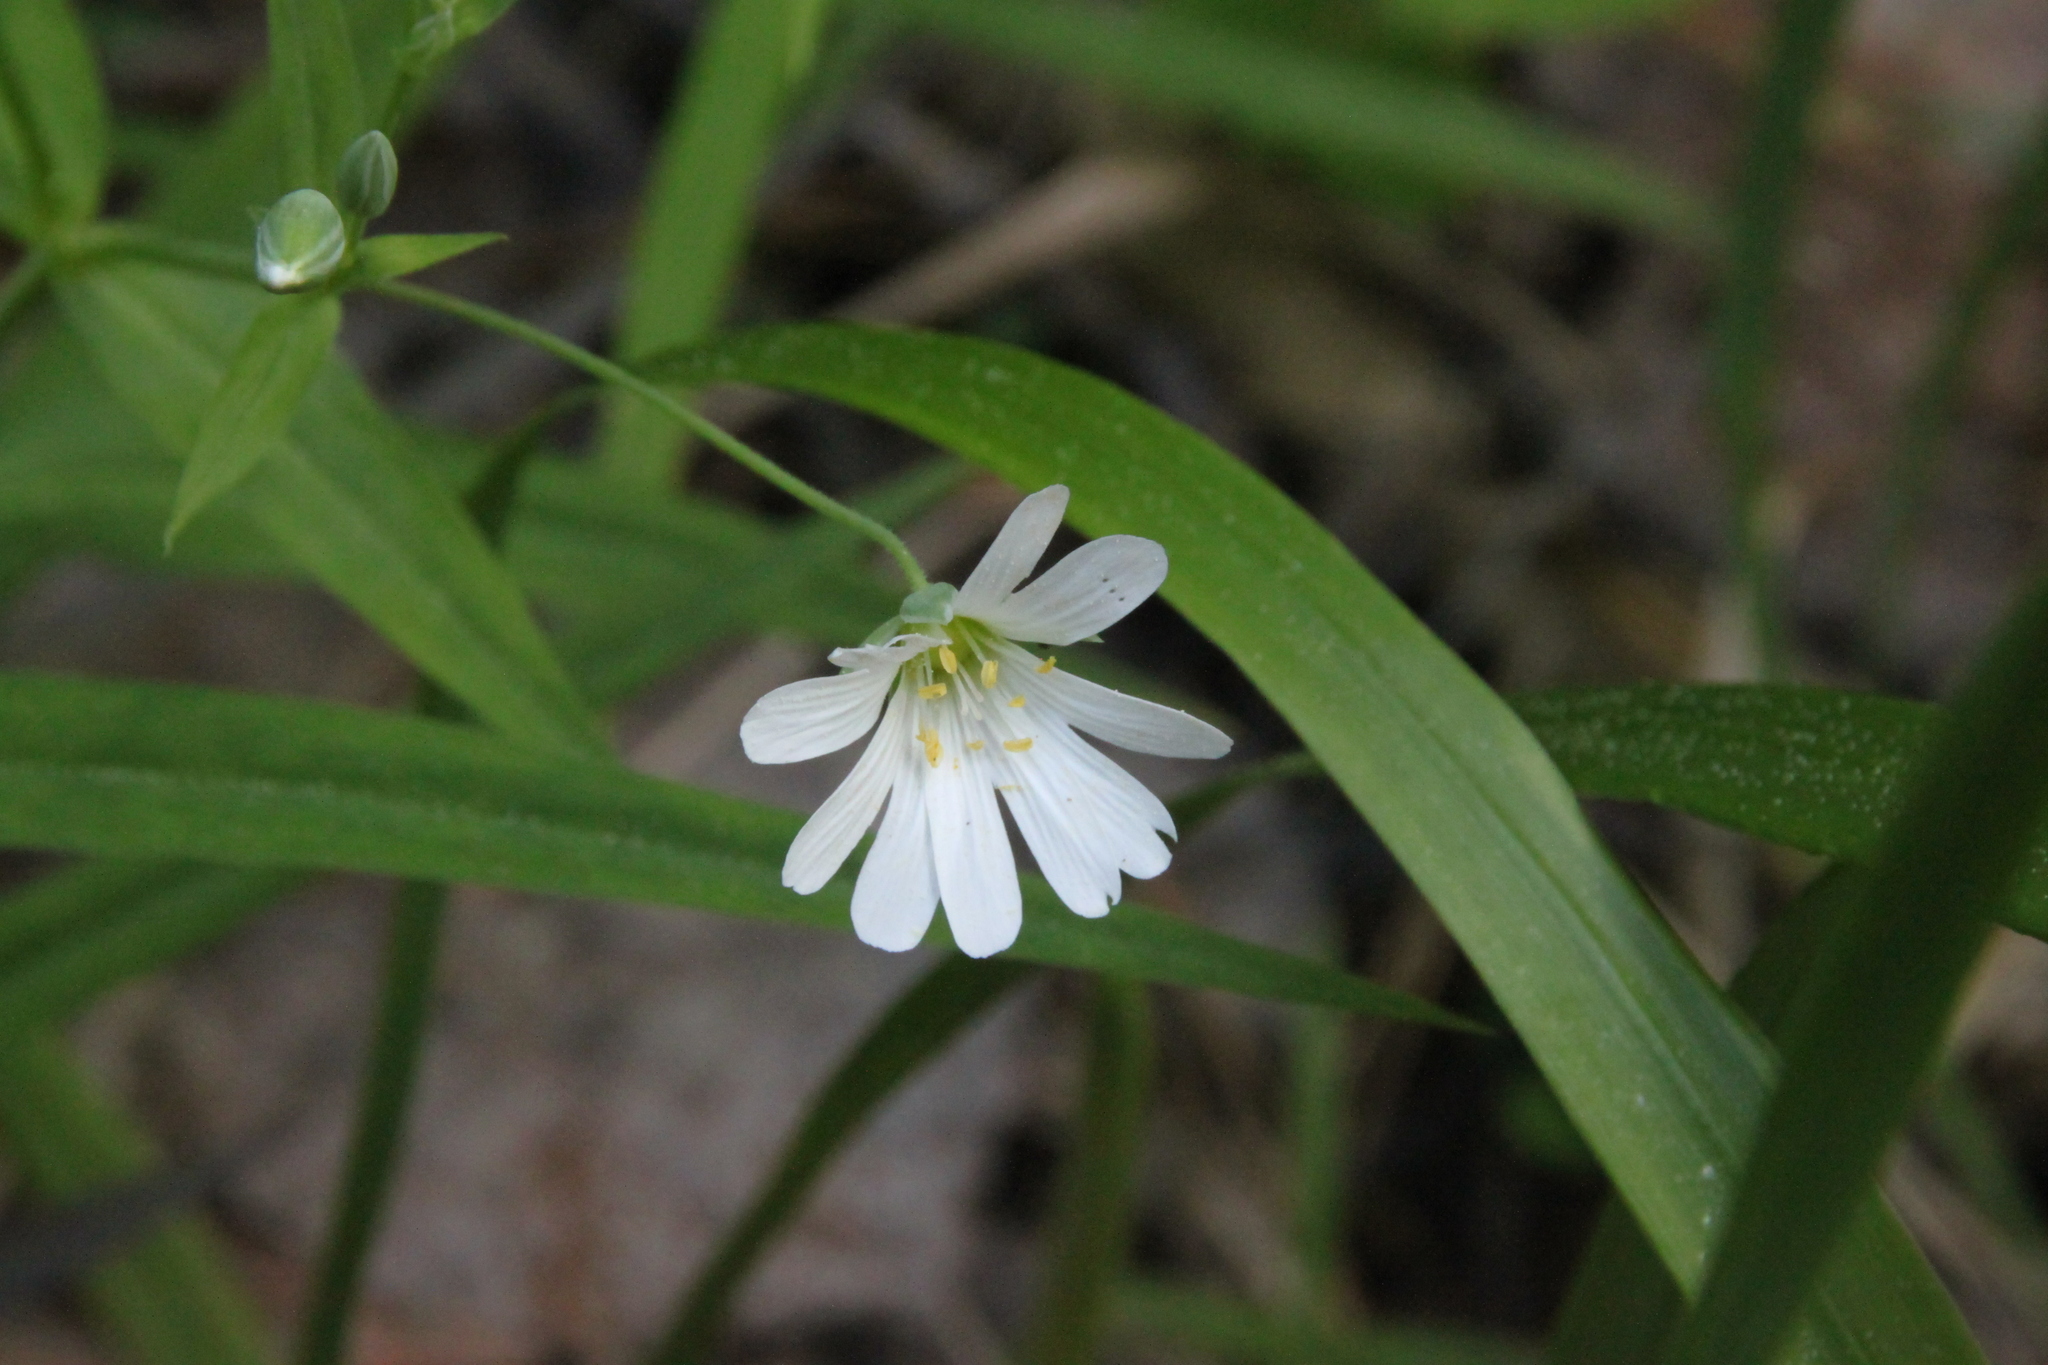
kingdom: Plantae
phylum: Tracheophyta
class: Magnoliopsida
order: Caryophyllales
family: Caryophyllaceae
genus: Rabelera
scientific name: Rabelera holostea
